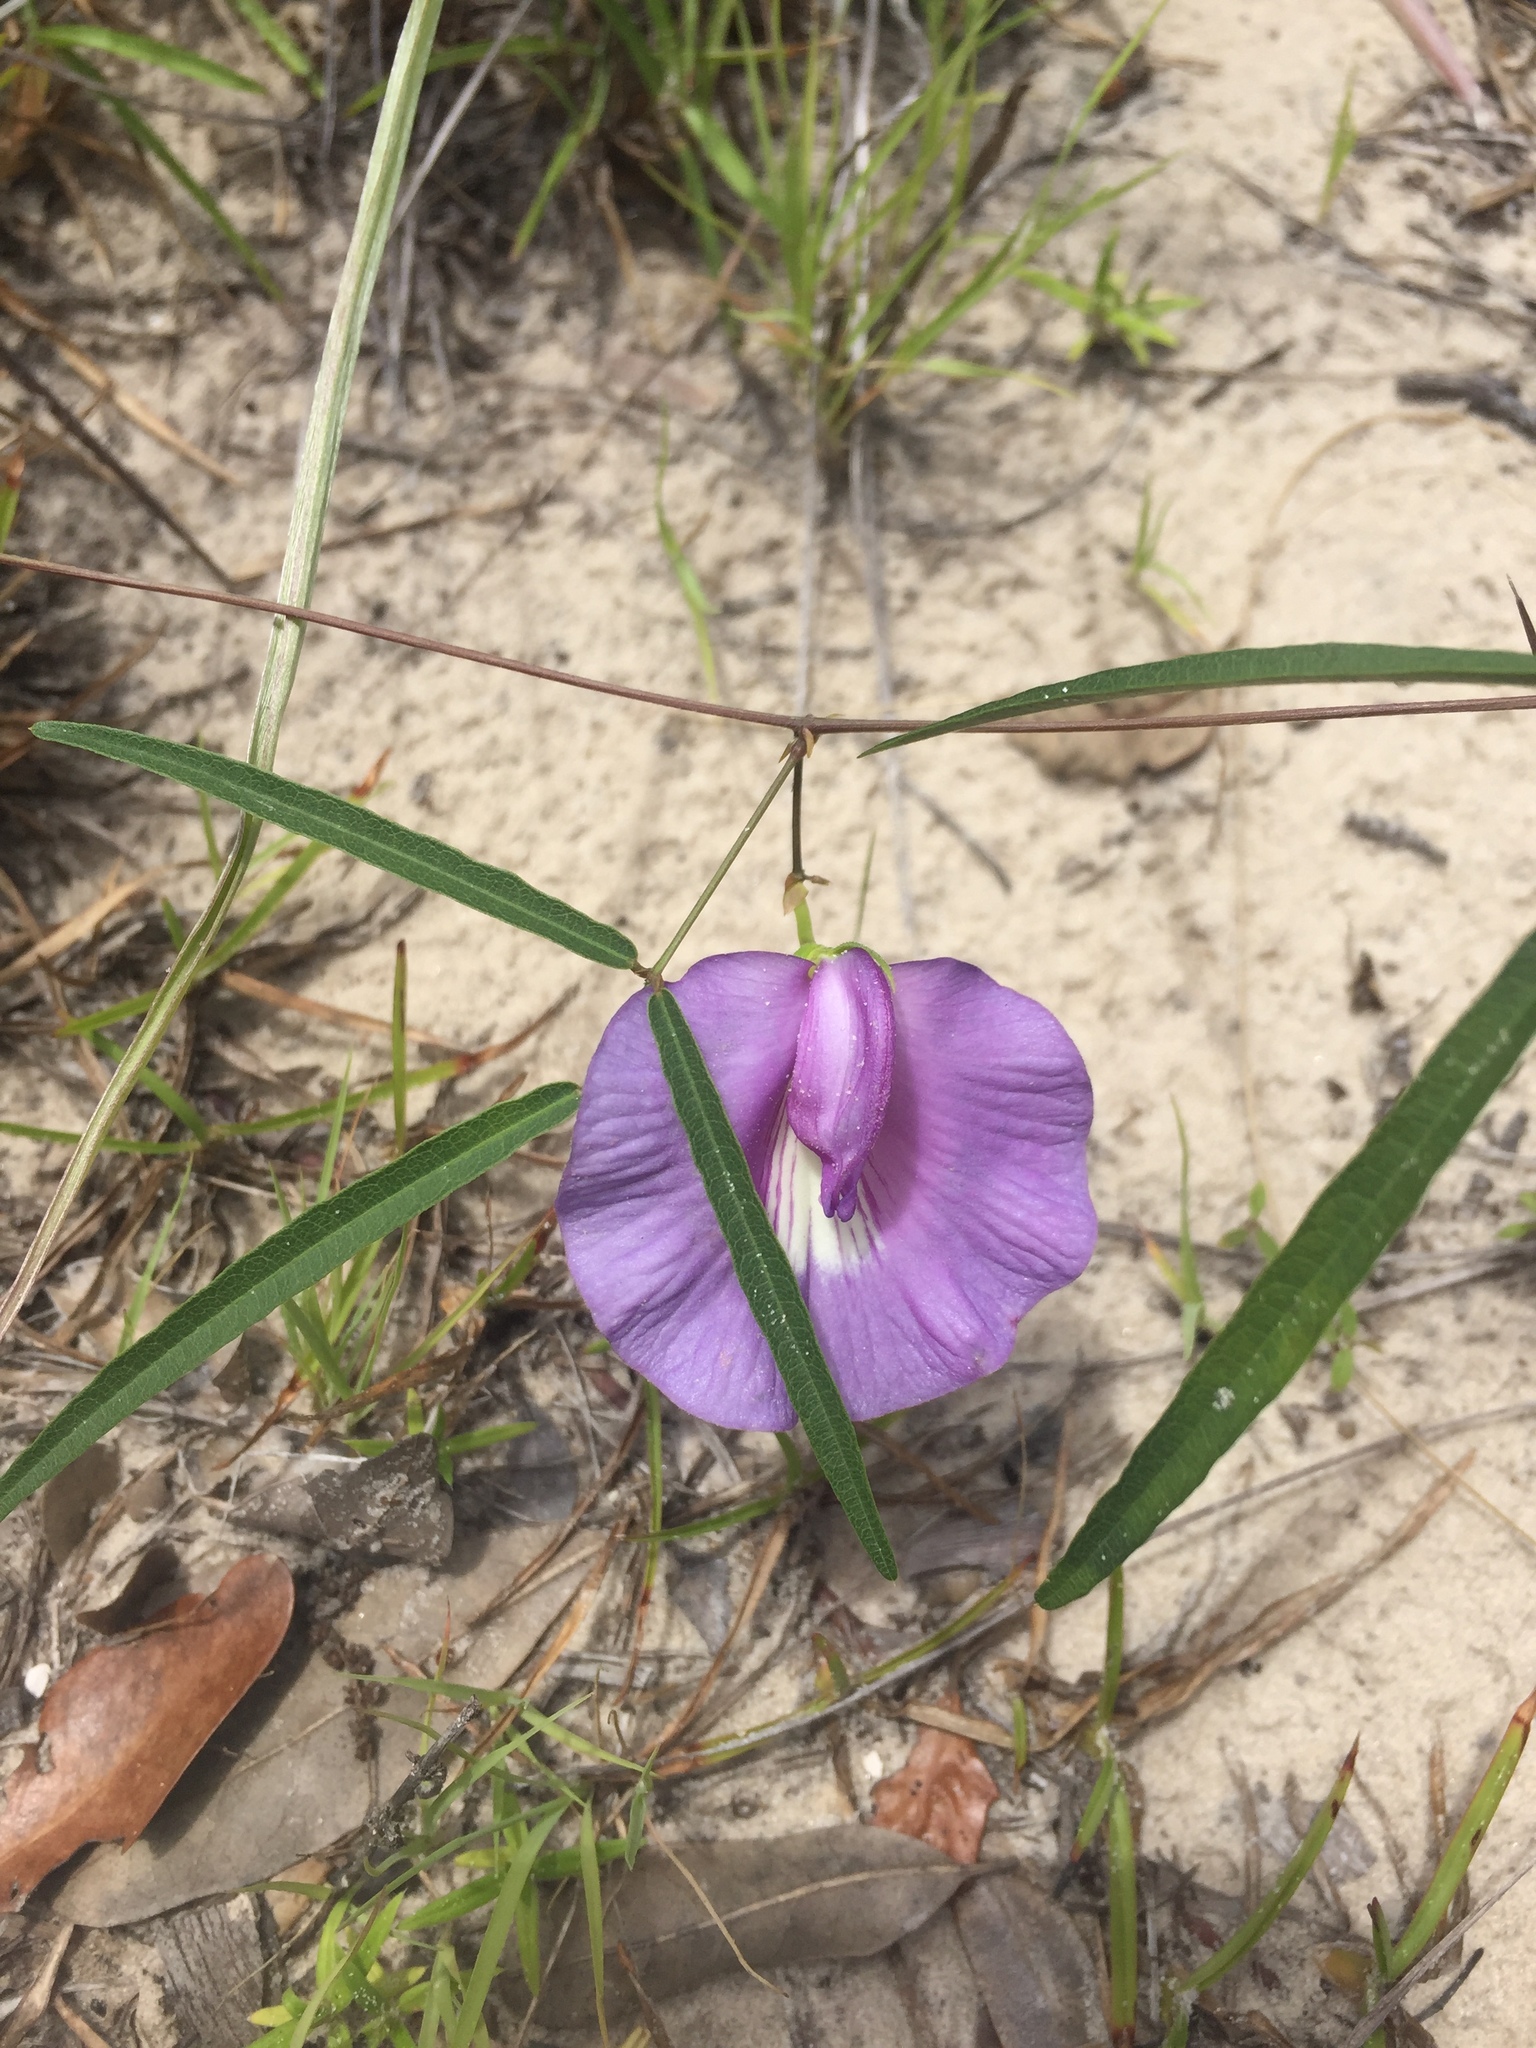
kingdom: Plantae
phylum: Tracheophyta
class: Magnoliopsida
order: Fabales
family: Fabaceae
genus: Centrosema
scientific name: Centrosema virginianum
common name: Butterfly-pea
